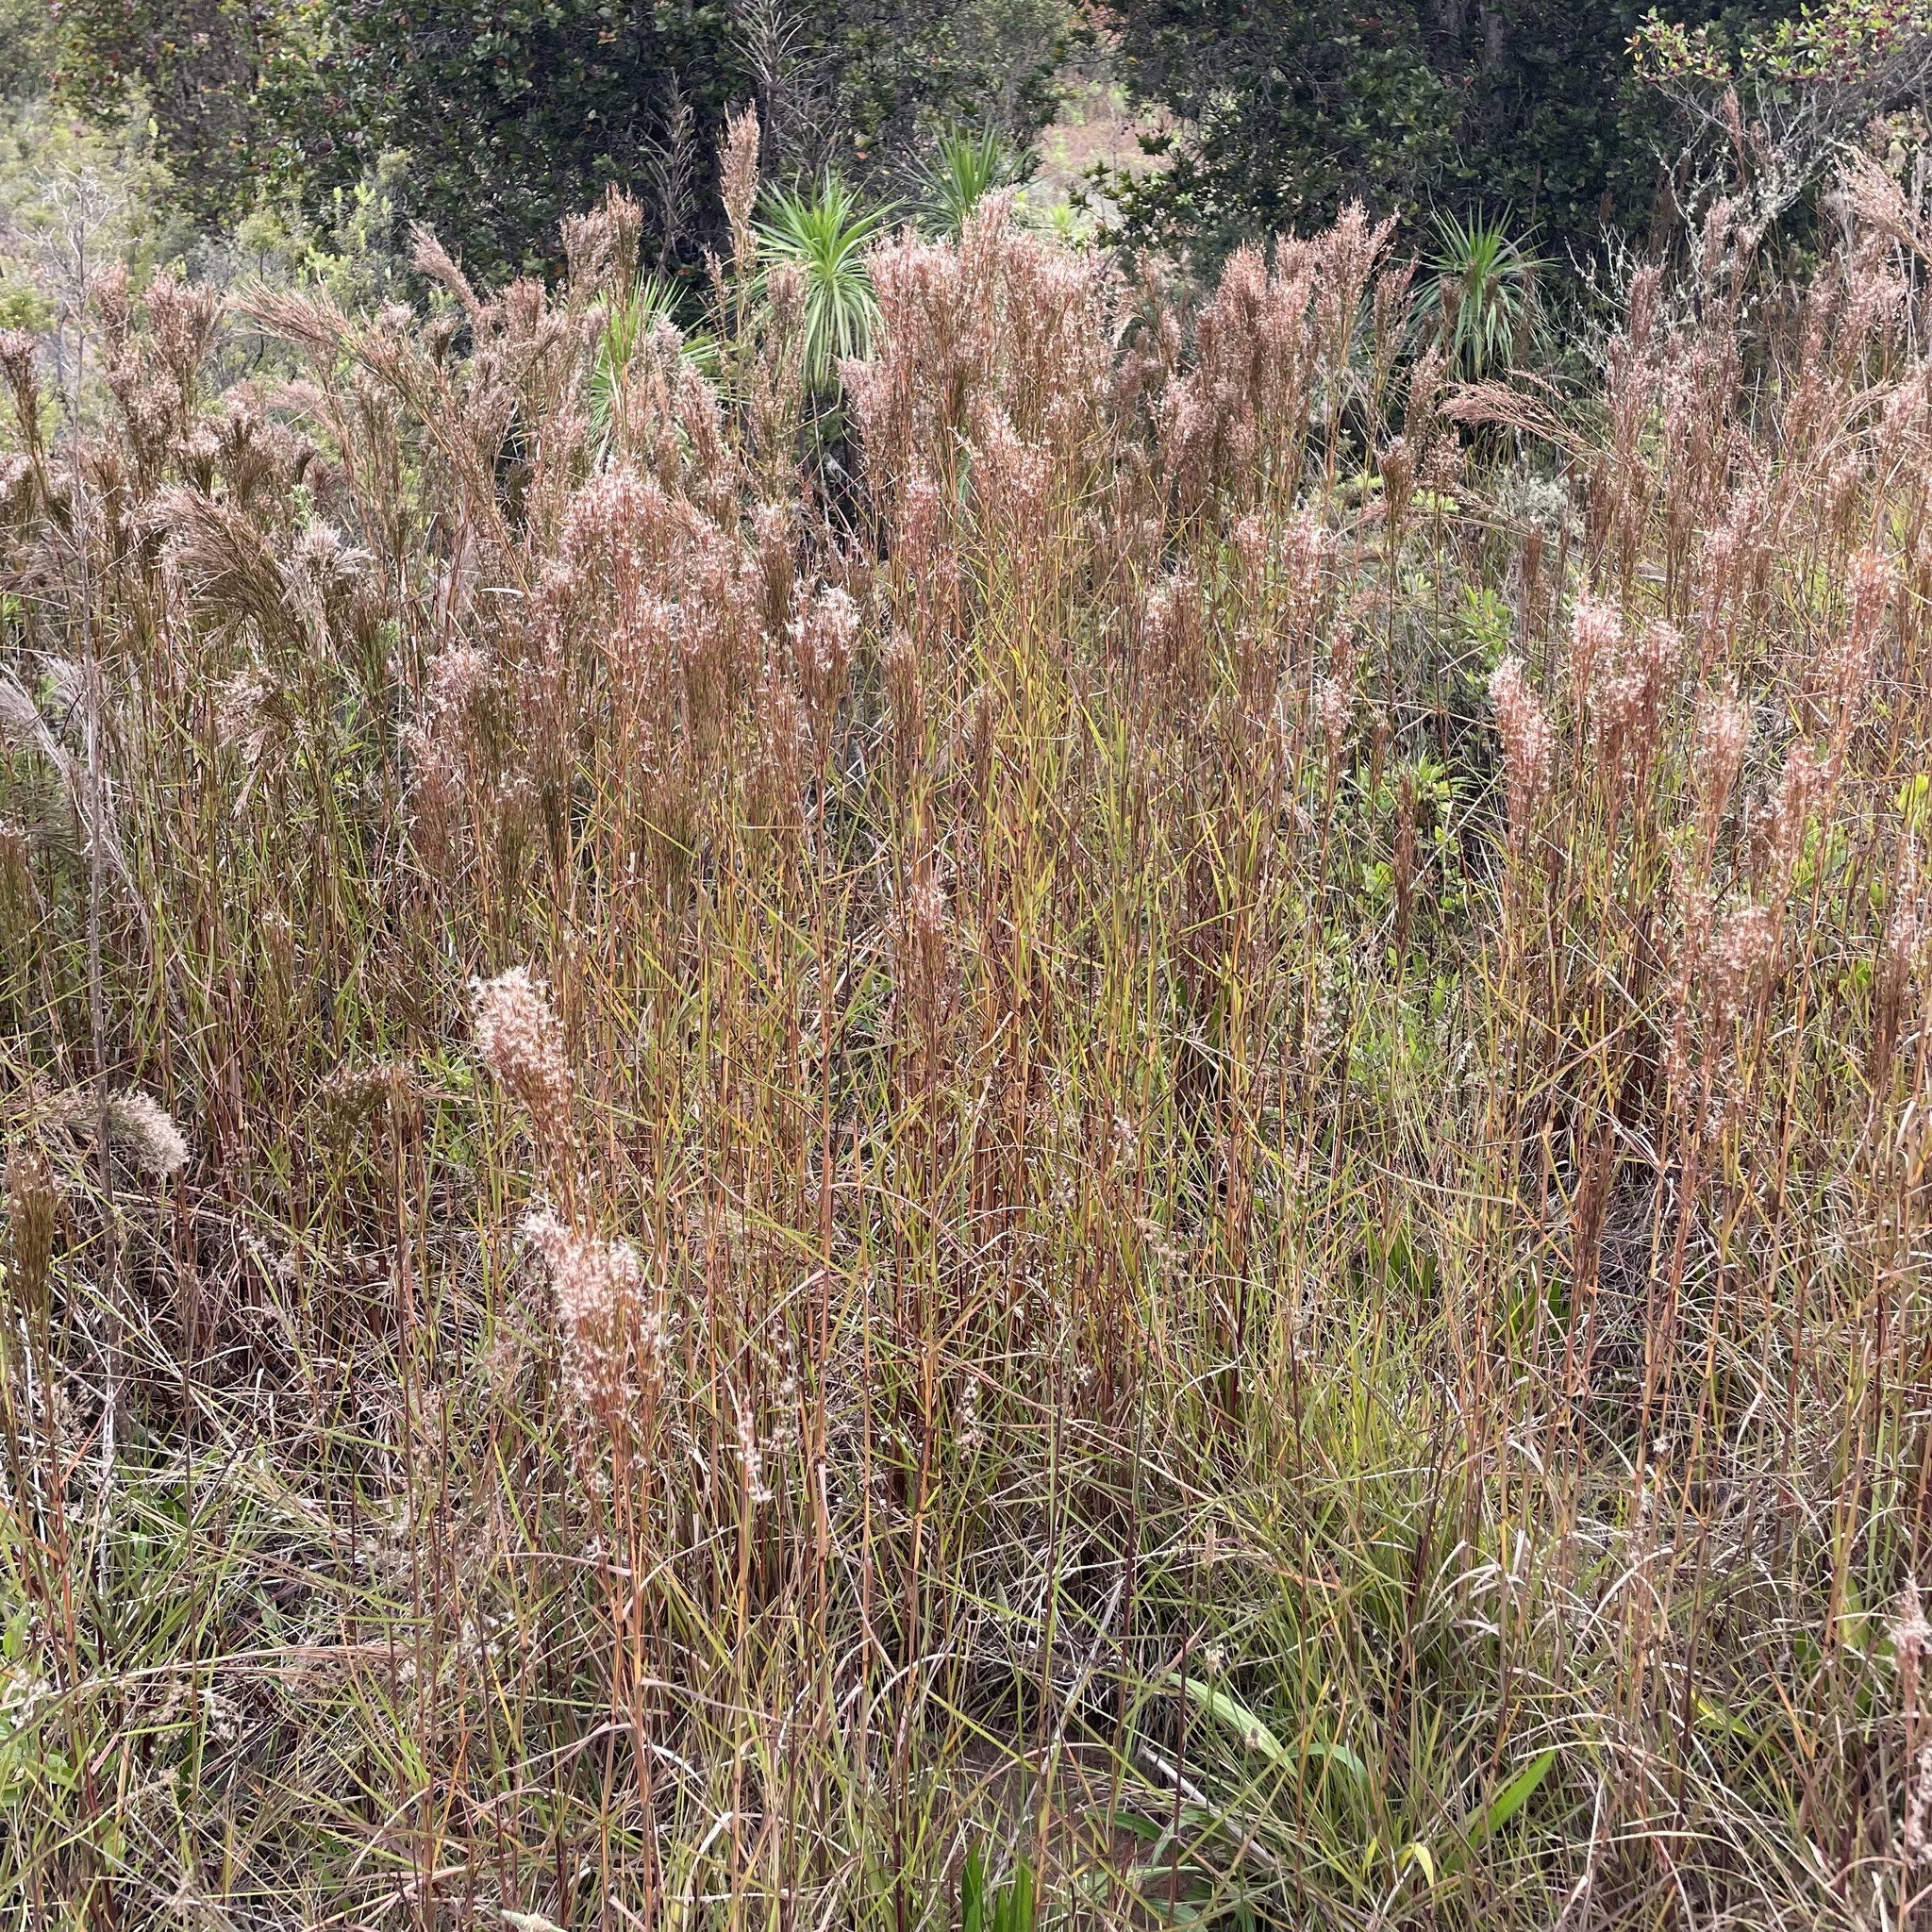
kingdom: Plantae
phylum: Tracheophyta
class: Liliopsida
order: Poales
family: Poaceae
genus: Schizachyrium
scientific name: Schizachyrium microstachyum
